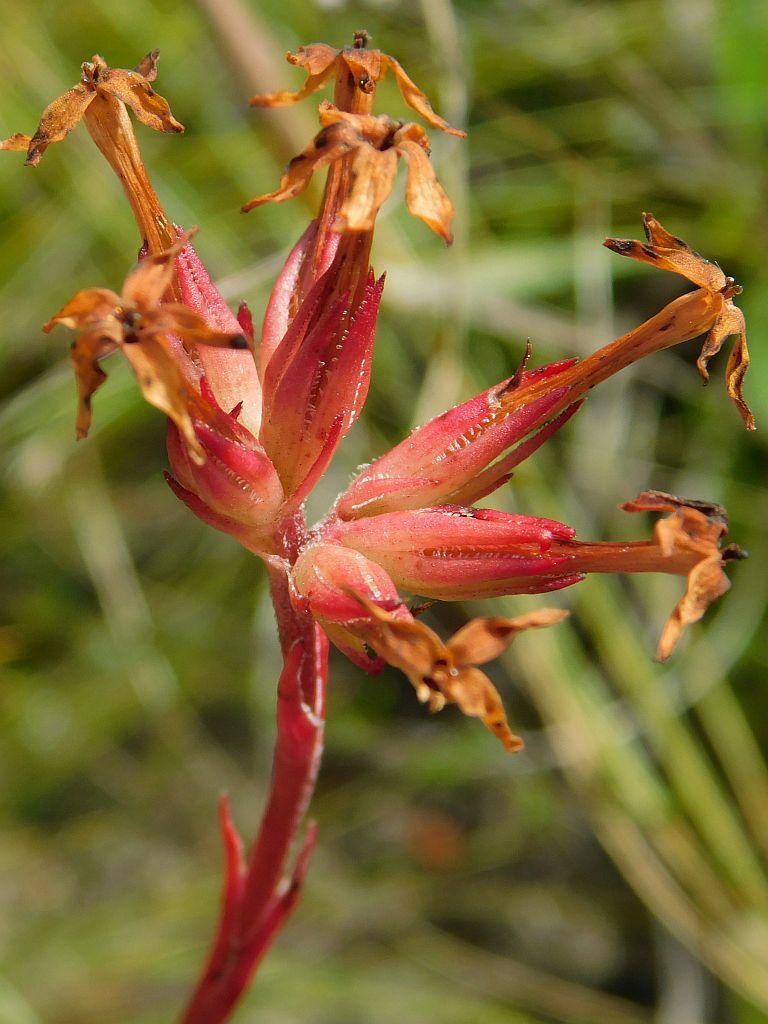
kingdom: Plantae
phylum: Tracheophyta
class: Magnoliopsida
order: Saxifragales
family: Crassulaceae
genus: Crassula
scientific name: Crassula fascicularis
